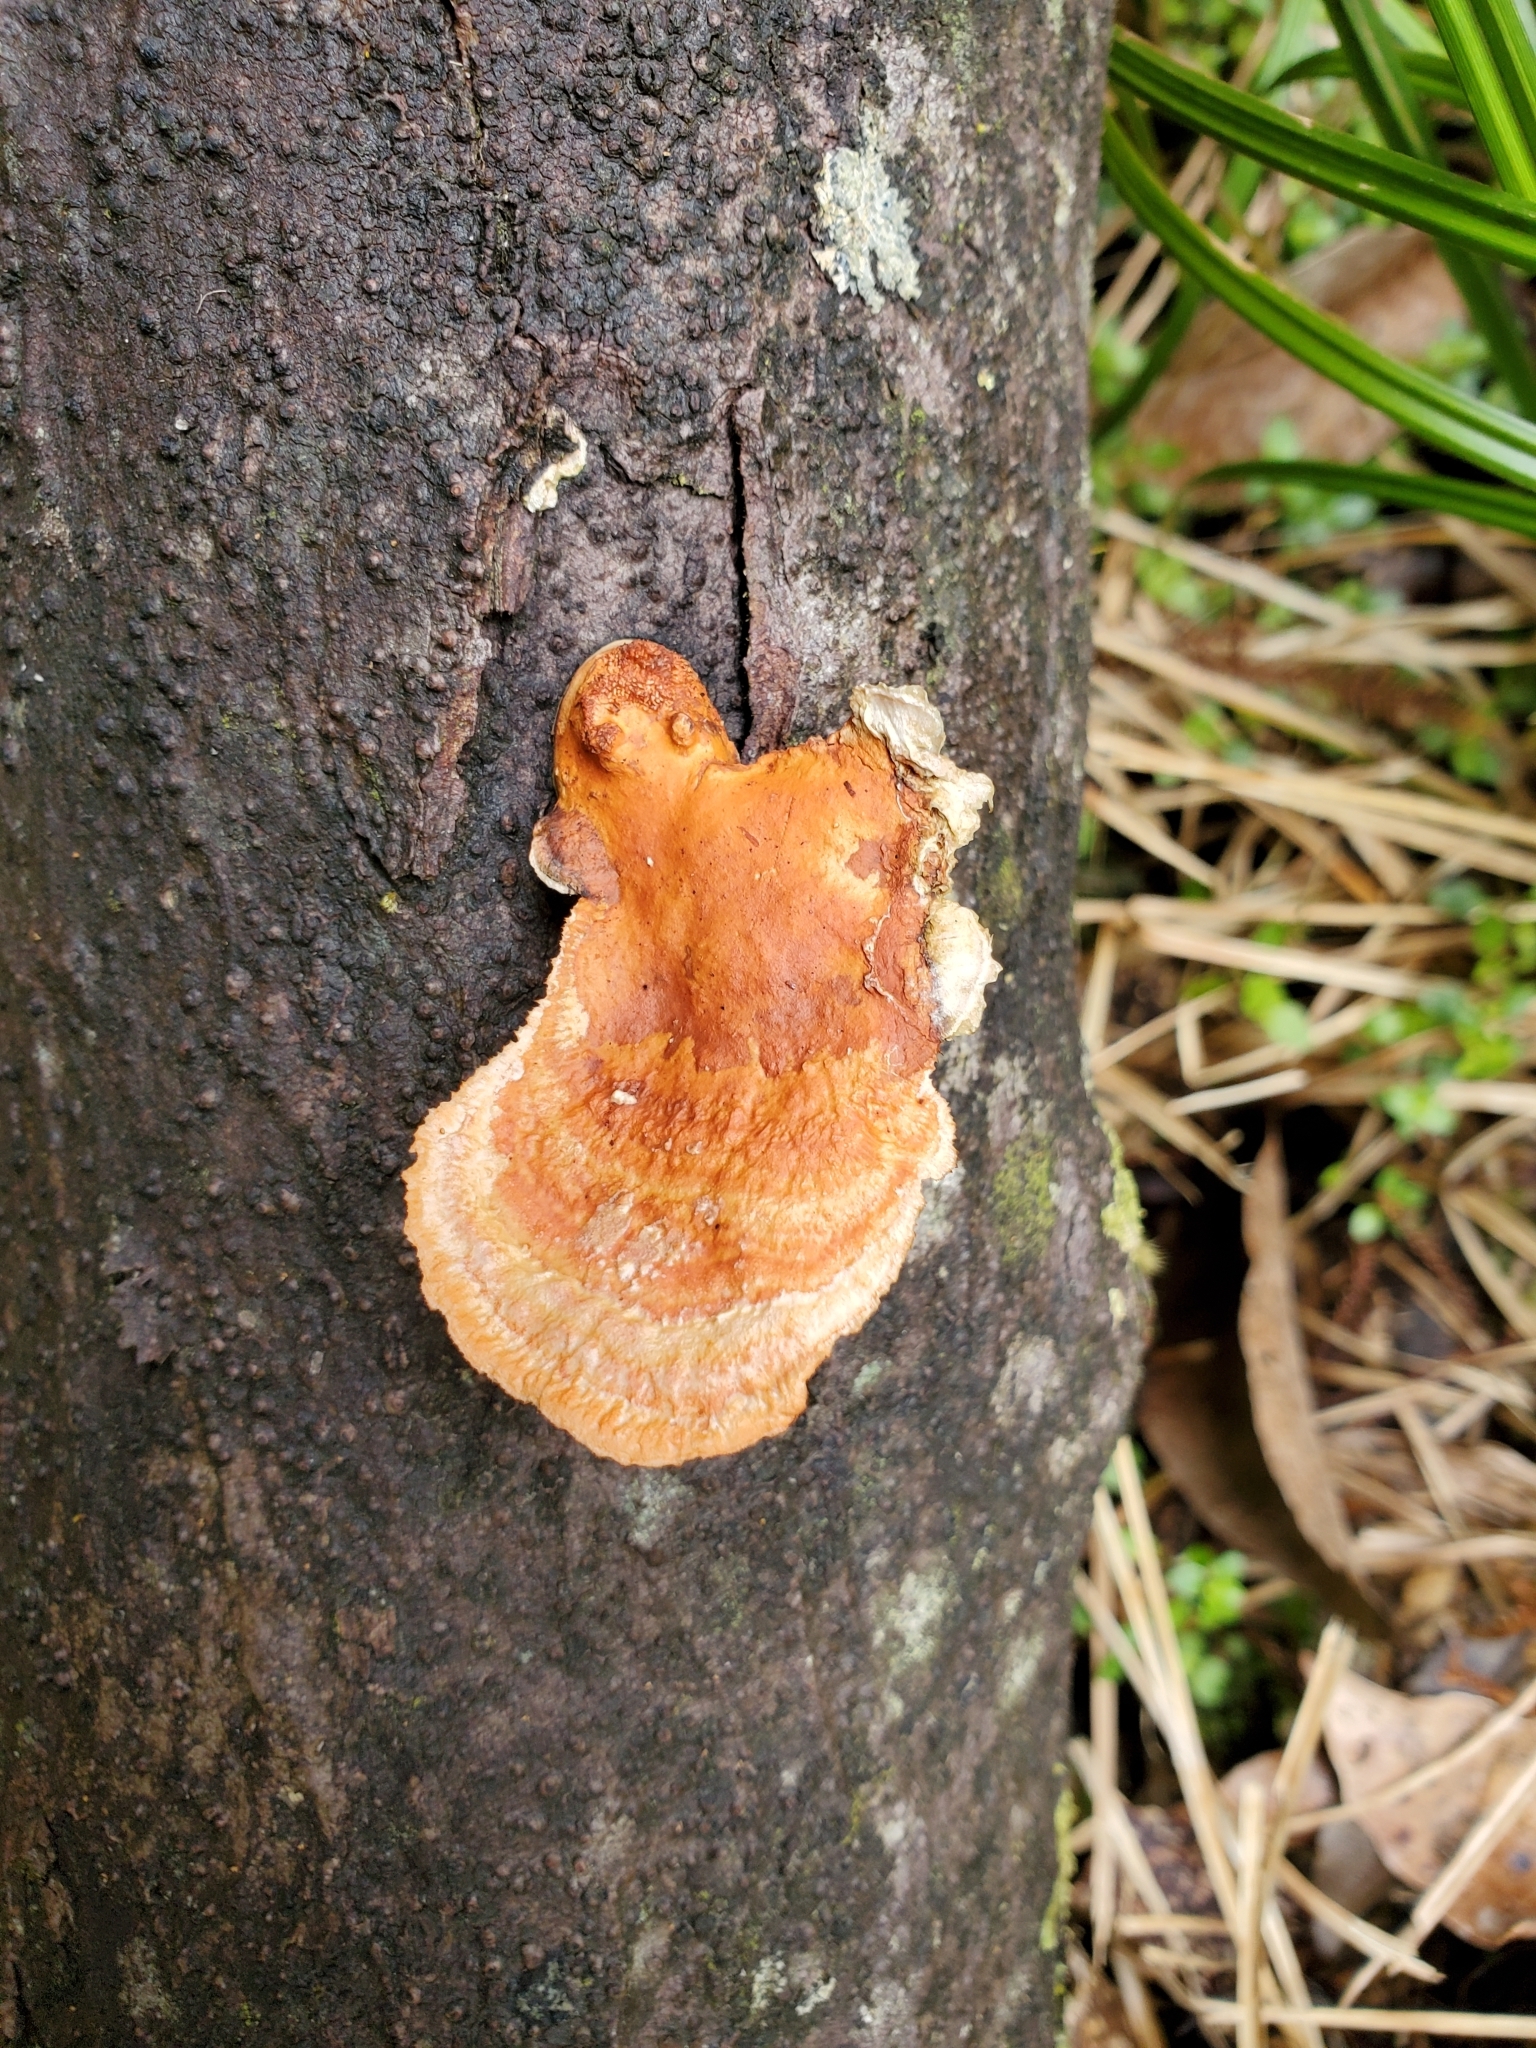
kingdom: Fungi
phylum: Basidiomycota
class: Agaricomycetes
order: Polyporales
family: Polyporaceae
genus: Trametes
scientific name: Trametes coccinea
